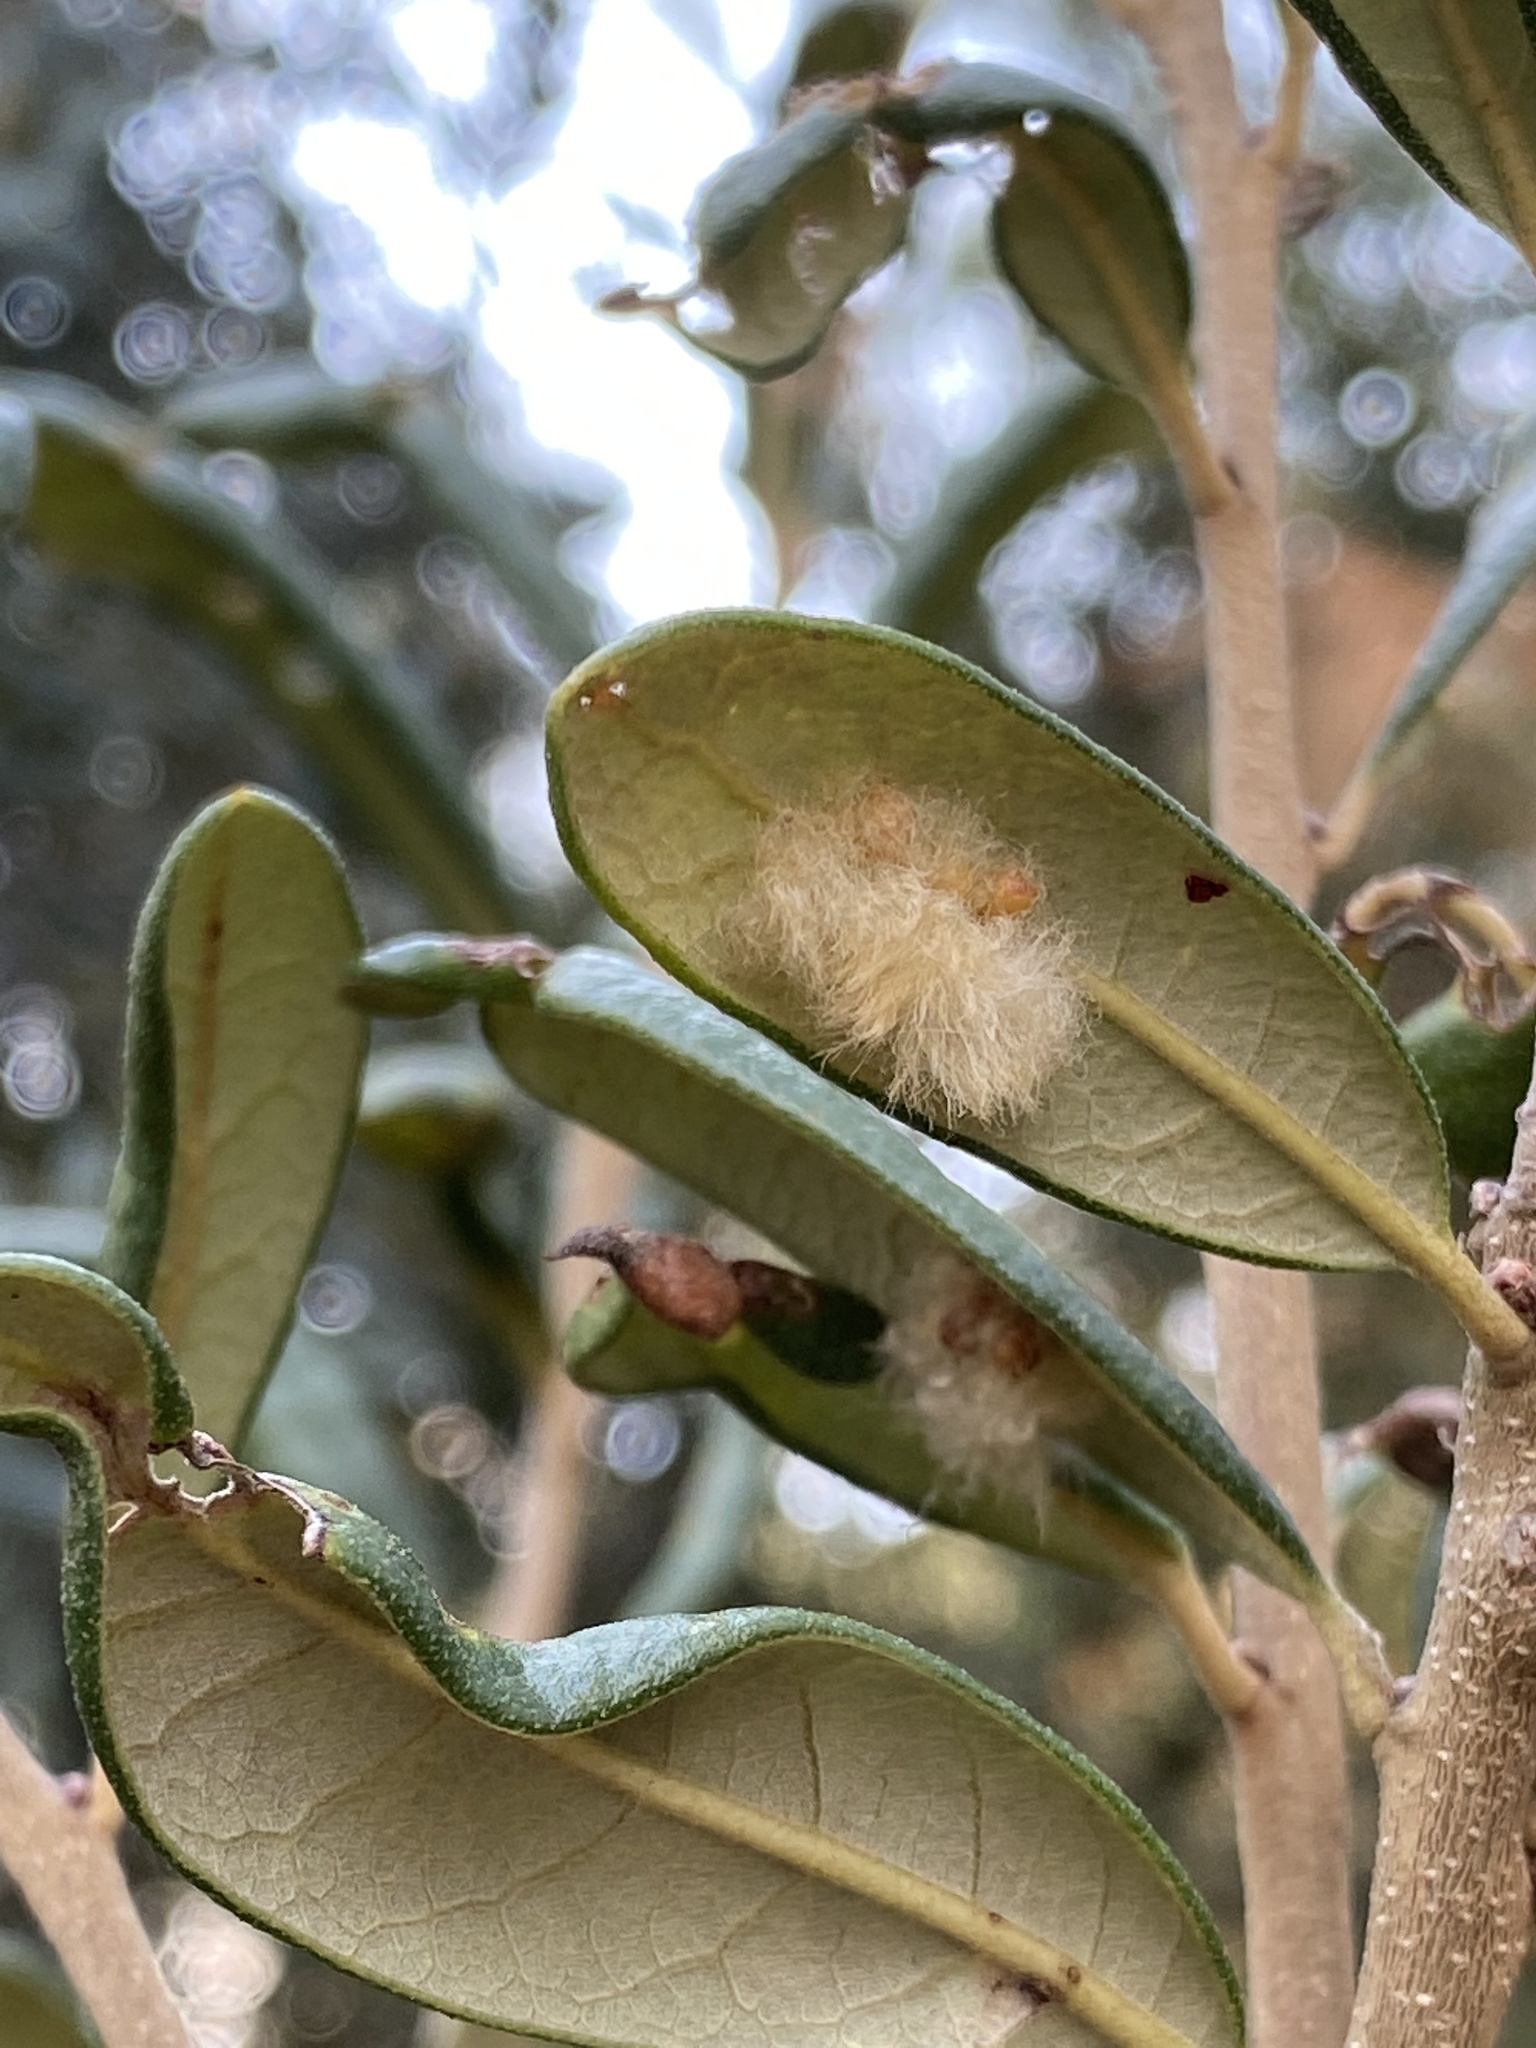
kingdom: Animalia
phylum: Arthropoda
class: Insecta
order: Hymenoptera
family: Cynipidae
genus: Andricus
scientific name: Andricus Druon quercuslanigerum
